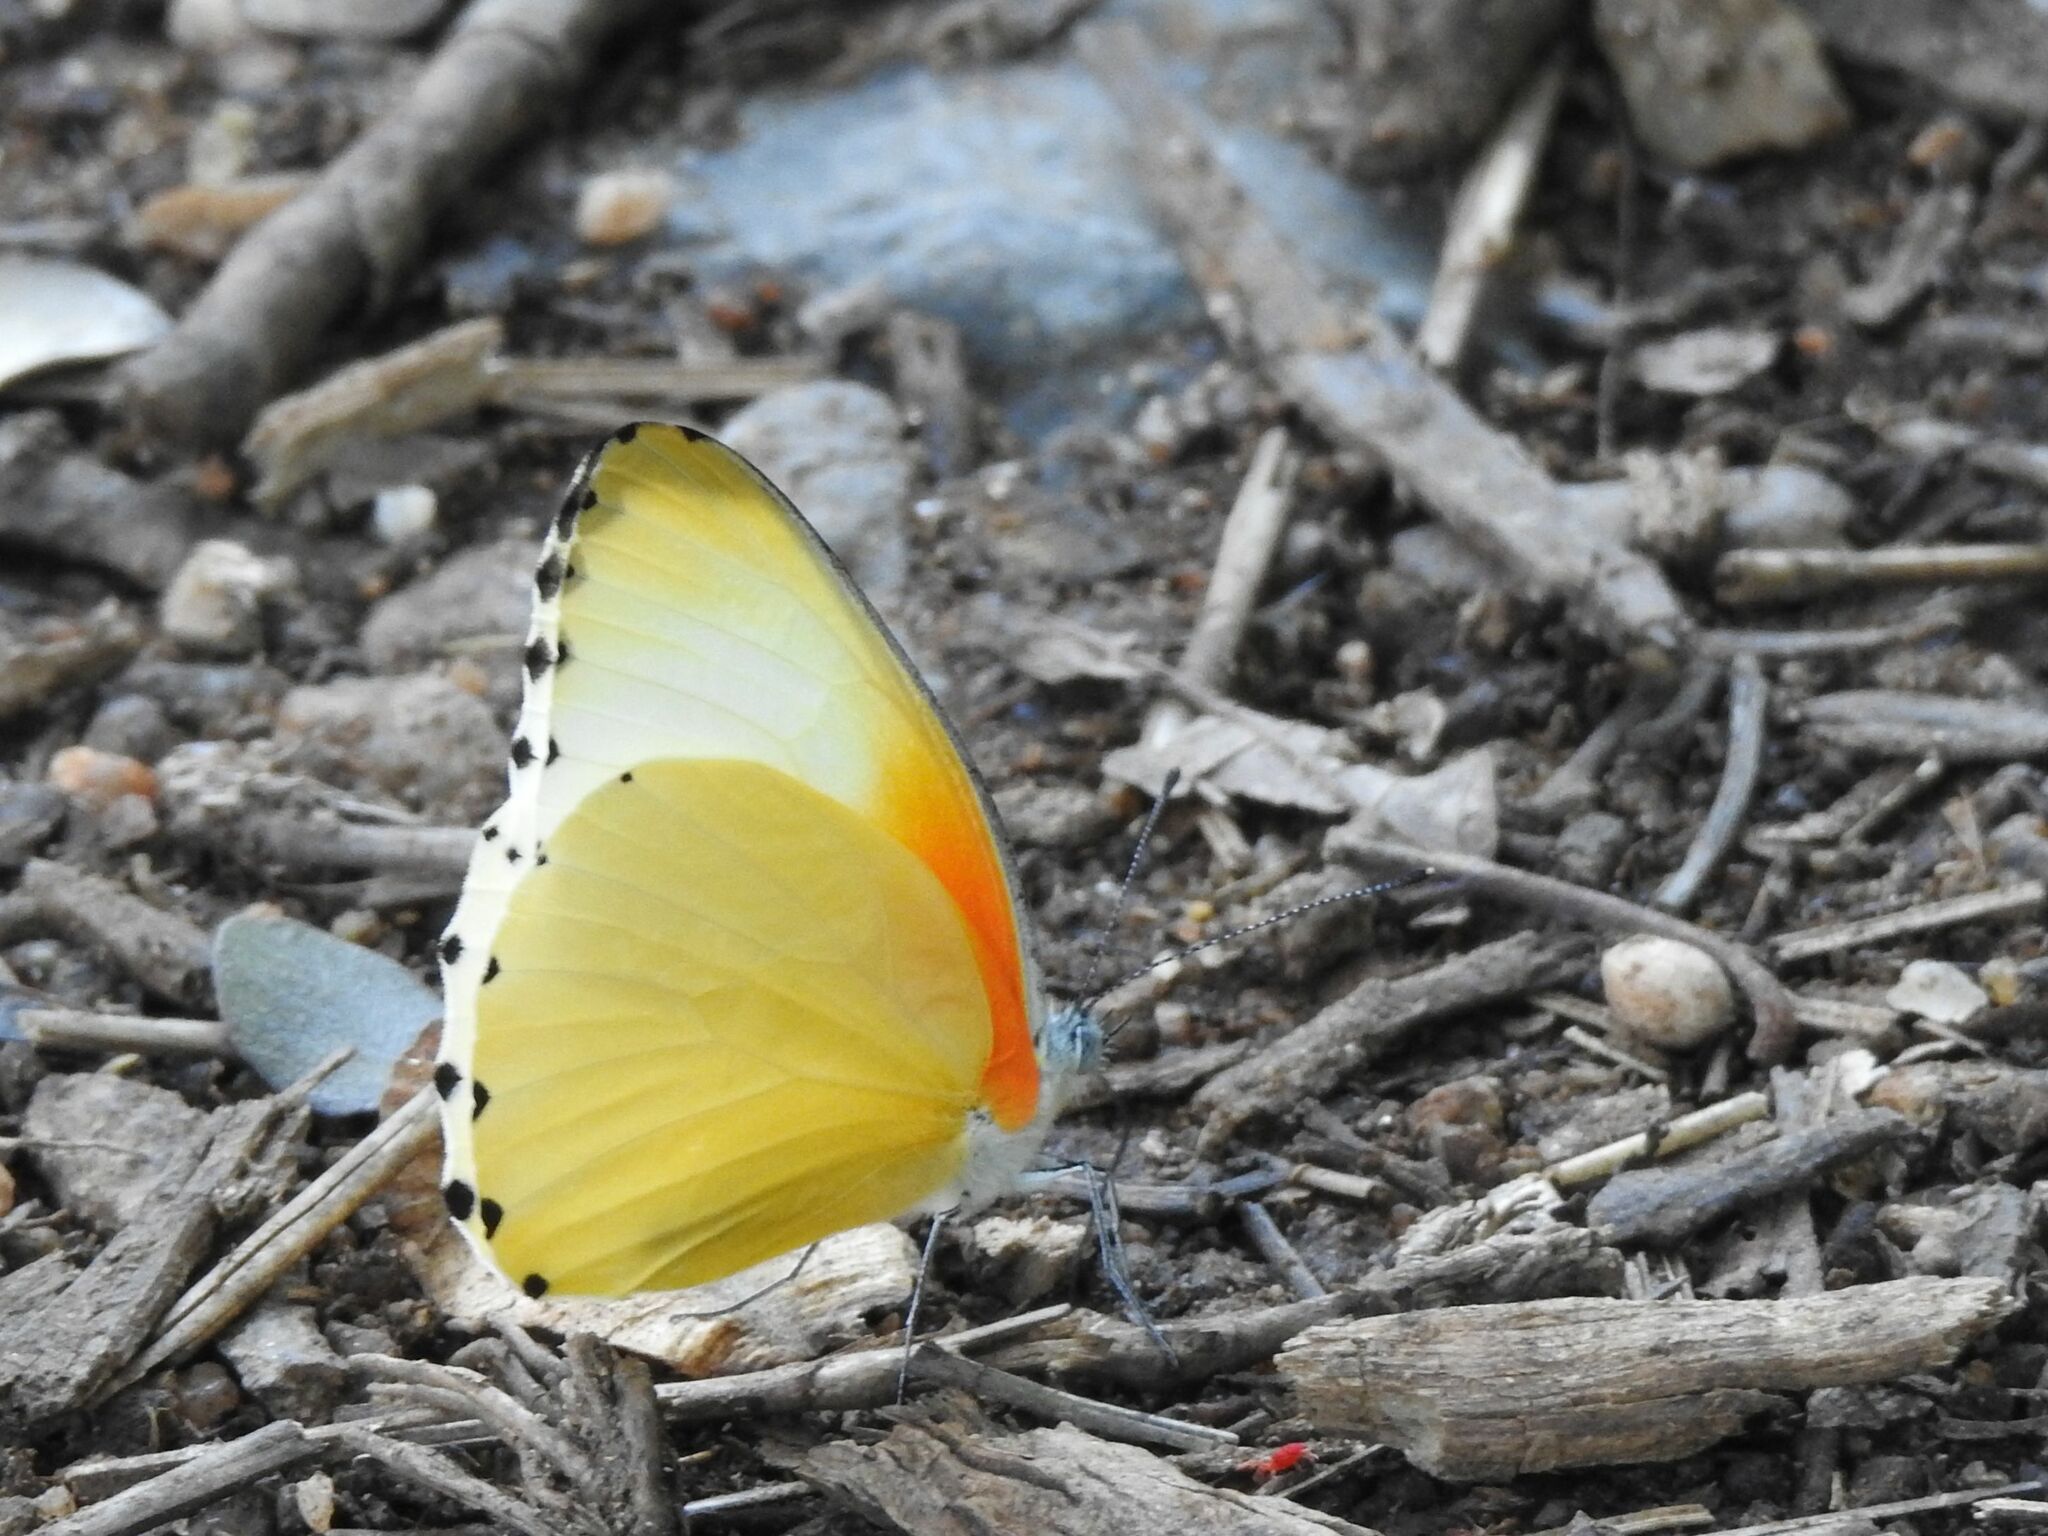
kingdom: Animalia
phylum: Arthropoda
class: Insecta
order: Lepidoptera
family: Pieridae
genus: Mylothris
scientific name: Mylothris agathina
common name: Eastern dotted border
